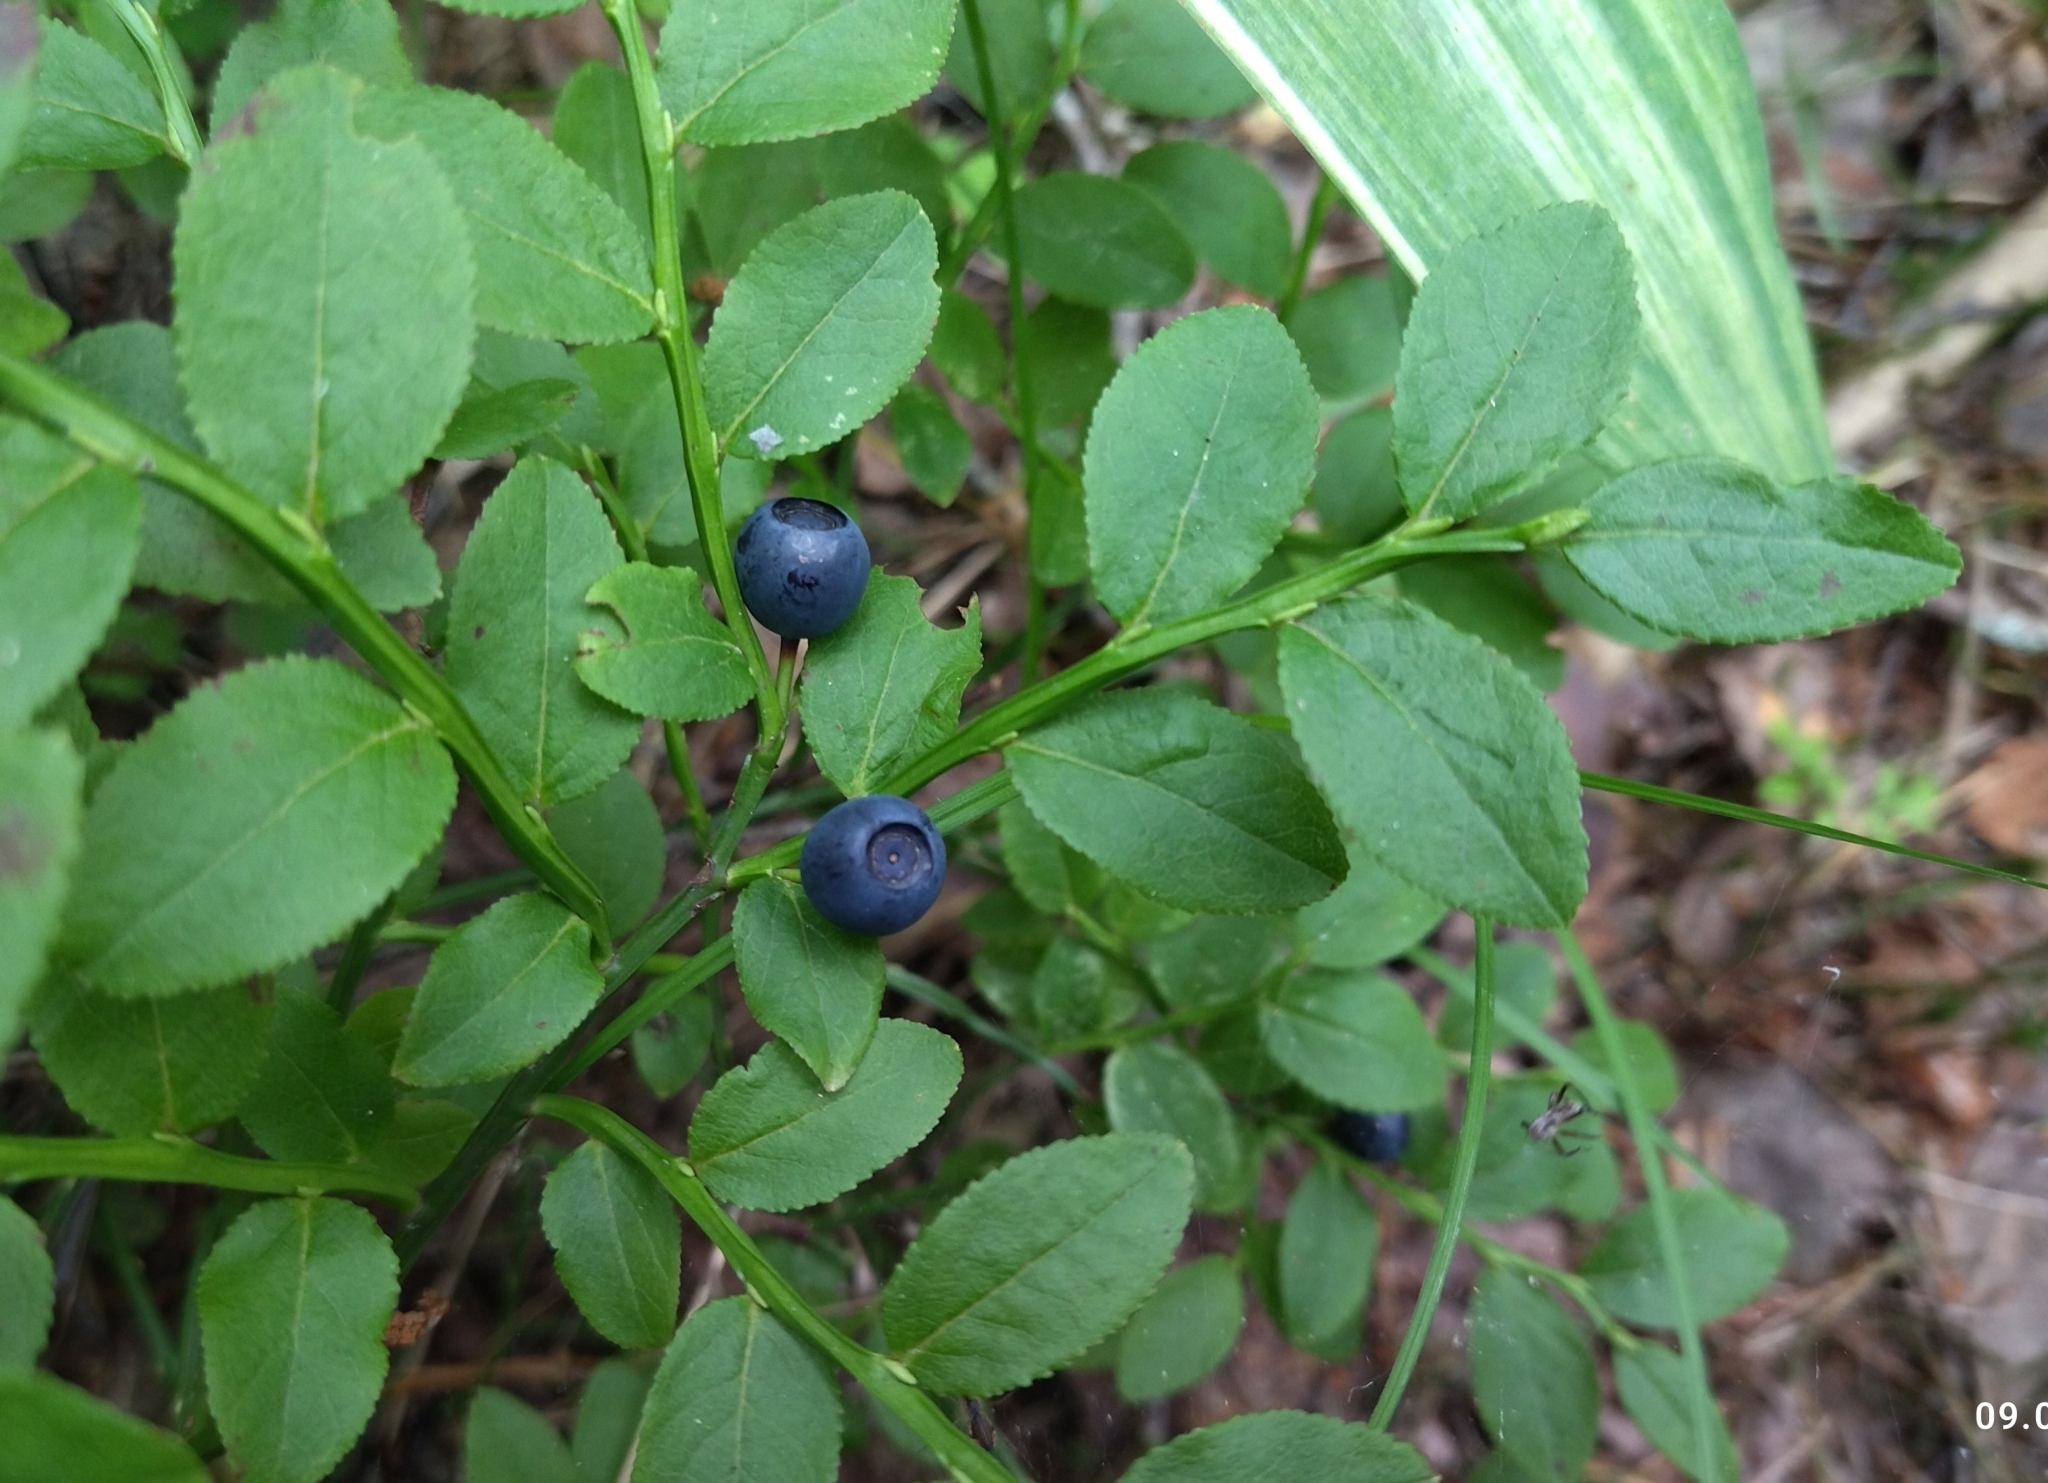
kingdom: Plantae
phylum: Tracheophyta
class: Magnoliopsida
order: Ericales
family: Ericaceae
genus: Vaccinium
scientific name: Vaccinium myrtillus
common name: Bilberry
